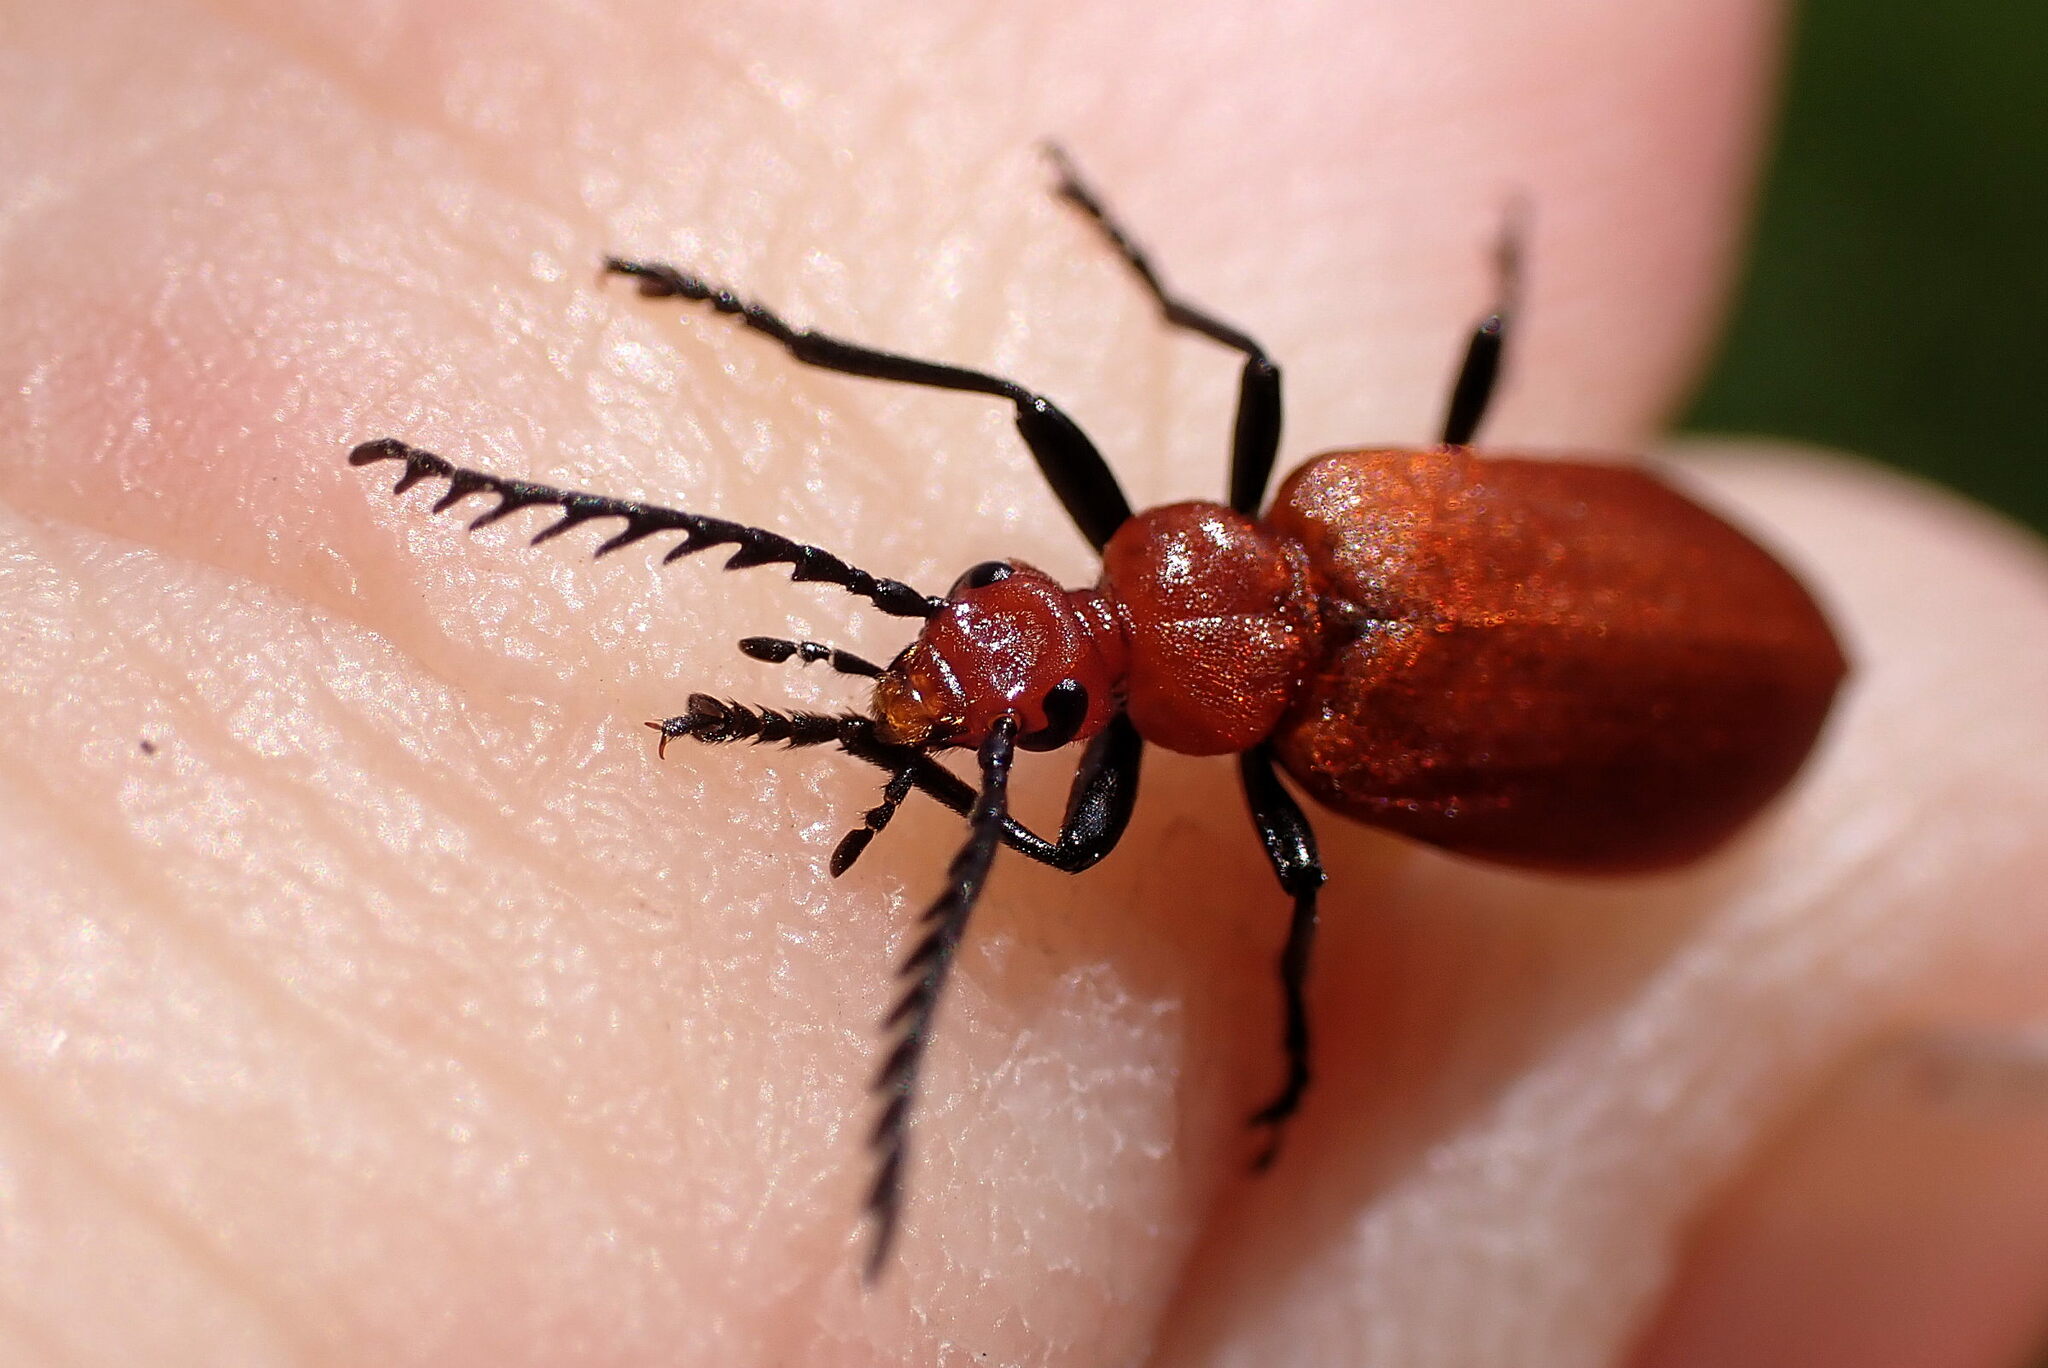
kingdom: Animalia
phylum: Arthropoda
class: Insecta
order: Coleoptera
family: Pyrochroidae
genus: Pyrochroa
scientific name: Pyrochroa serraticornis
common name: Red-headed cardinal beetle
